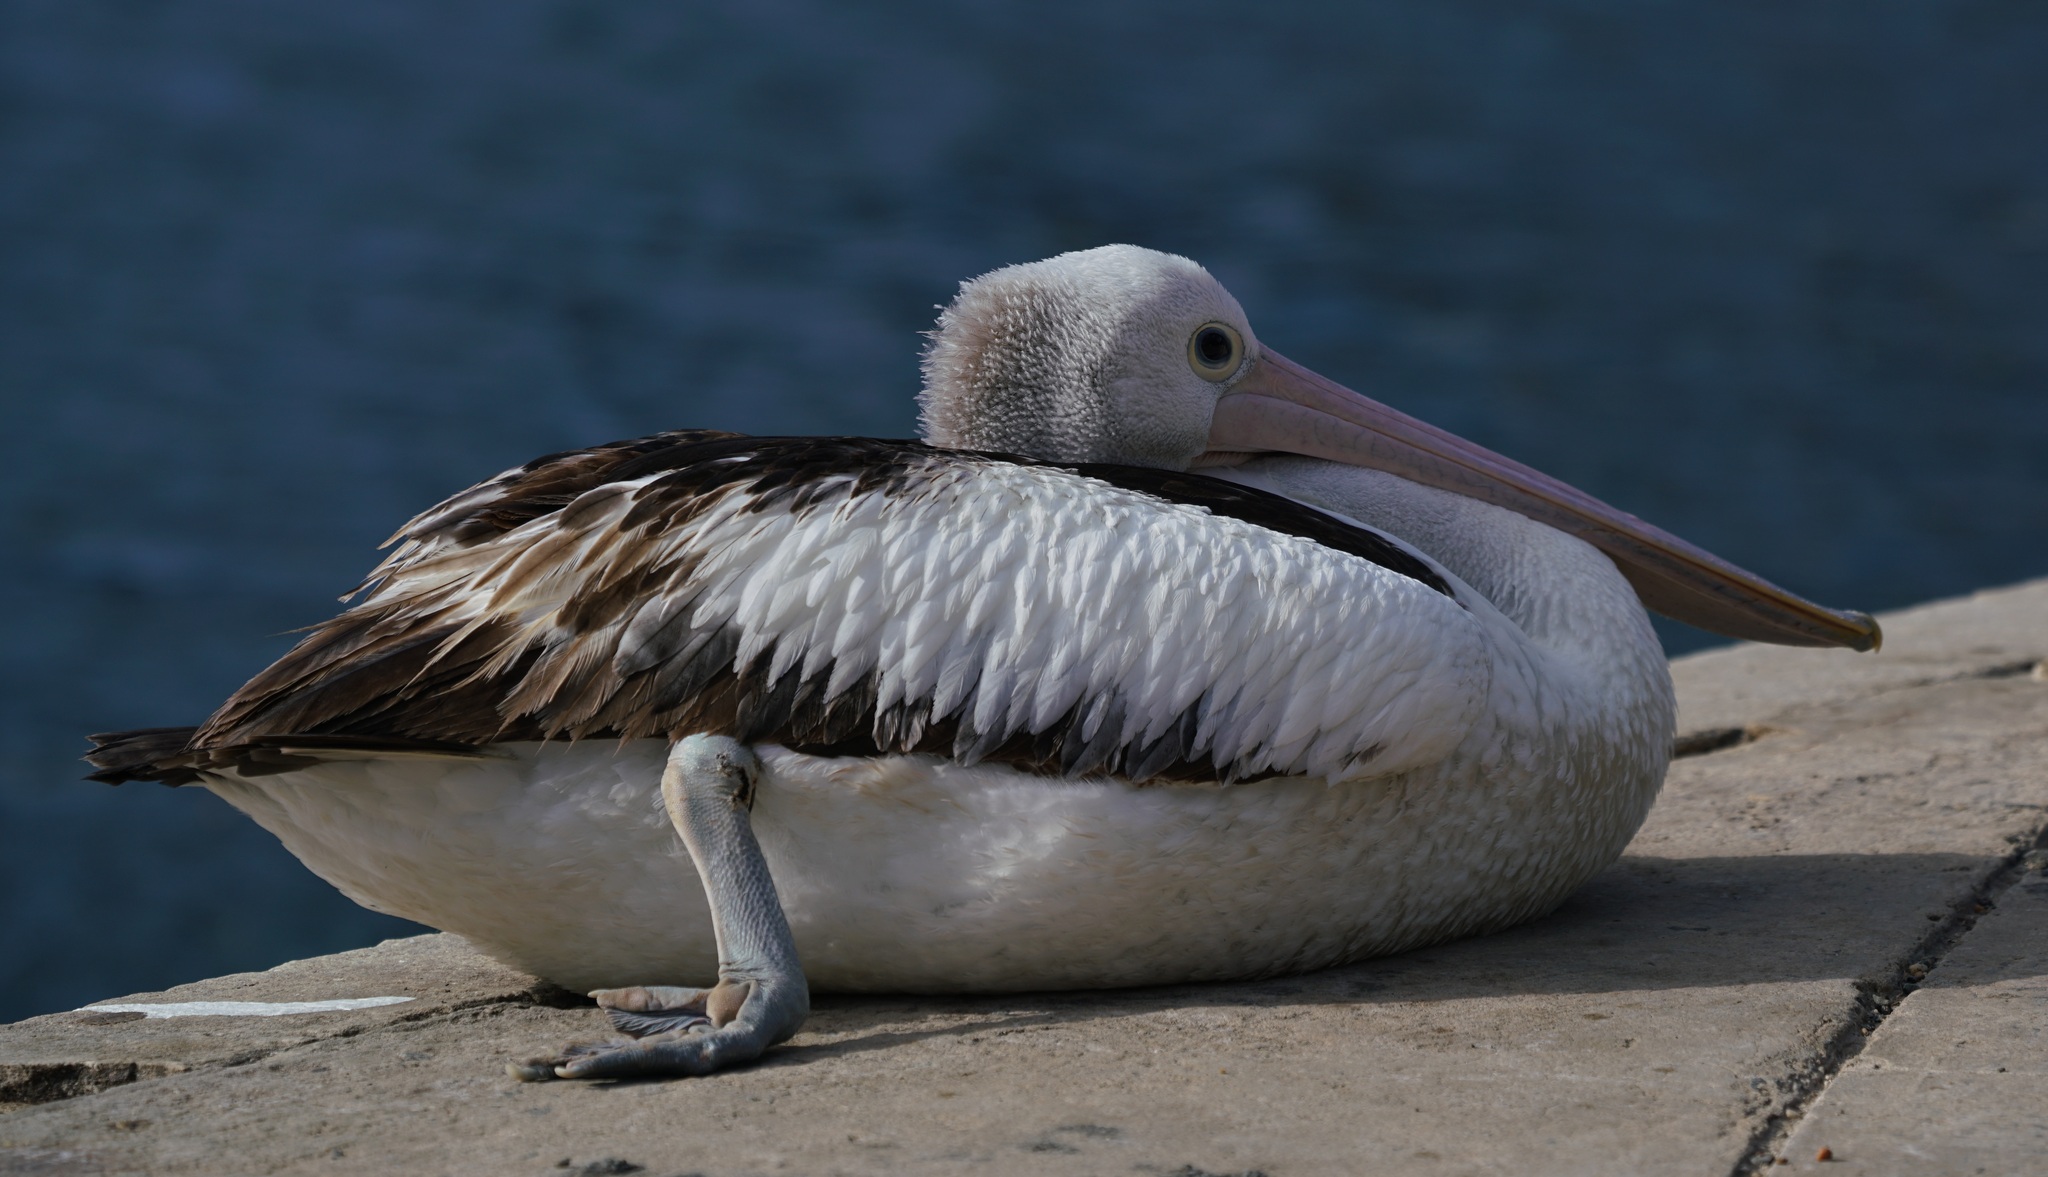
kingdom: Animalia
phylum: Chordata
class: Aves
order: Pelecaniformes
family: Pelecanidae
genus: Pelecanus
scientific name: Pelecanus conspicillatus
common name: Australian pelican
